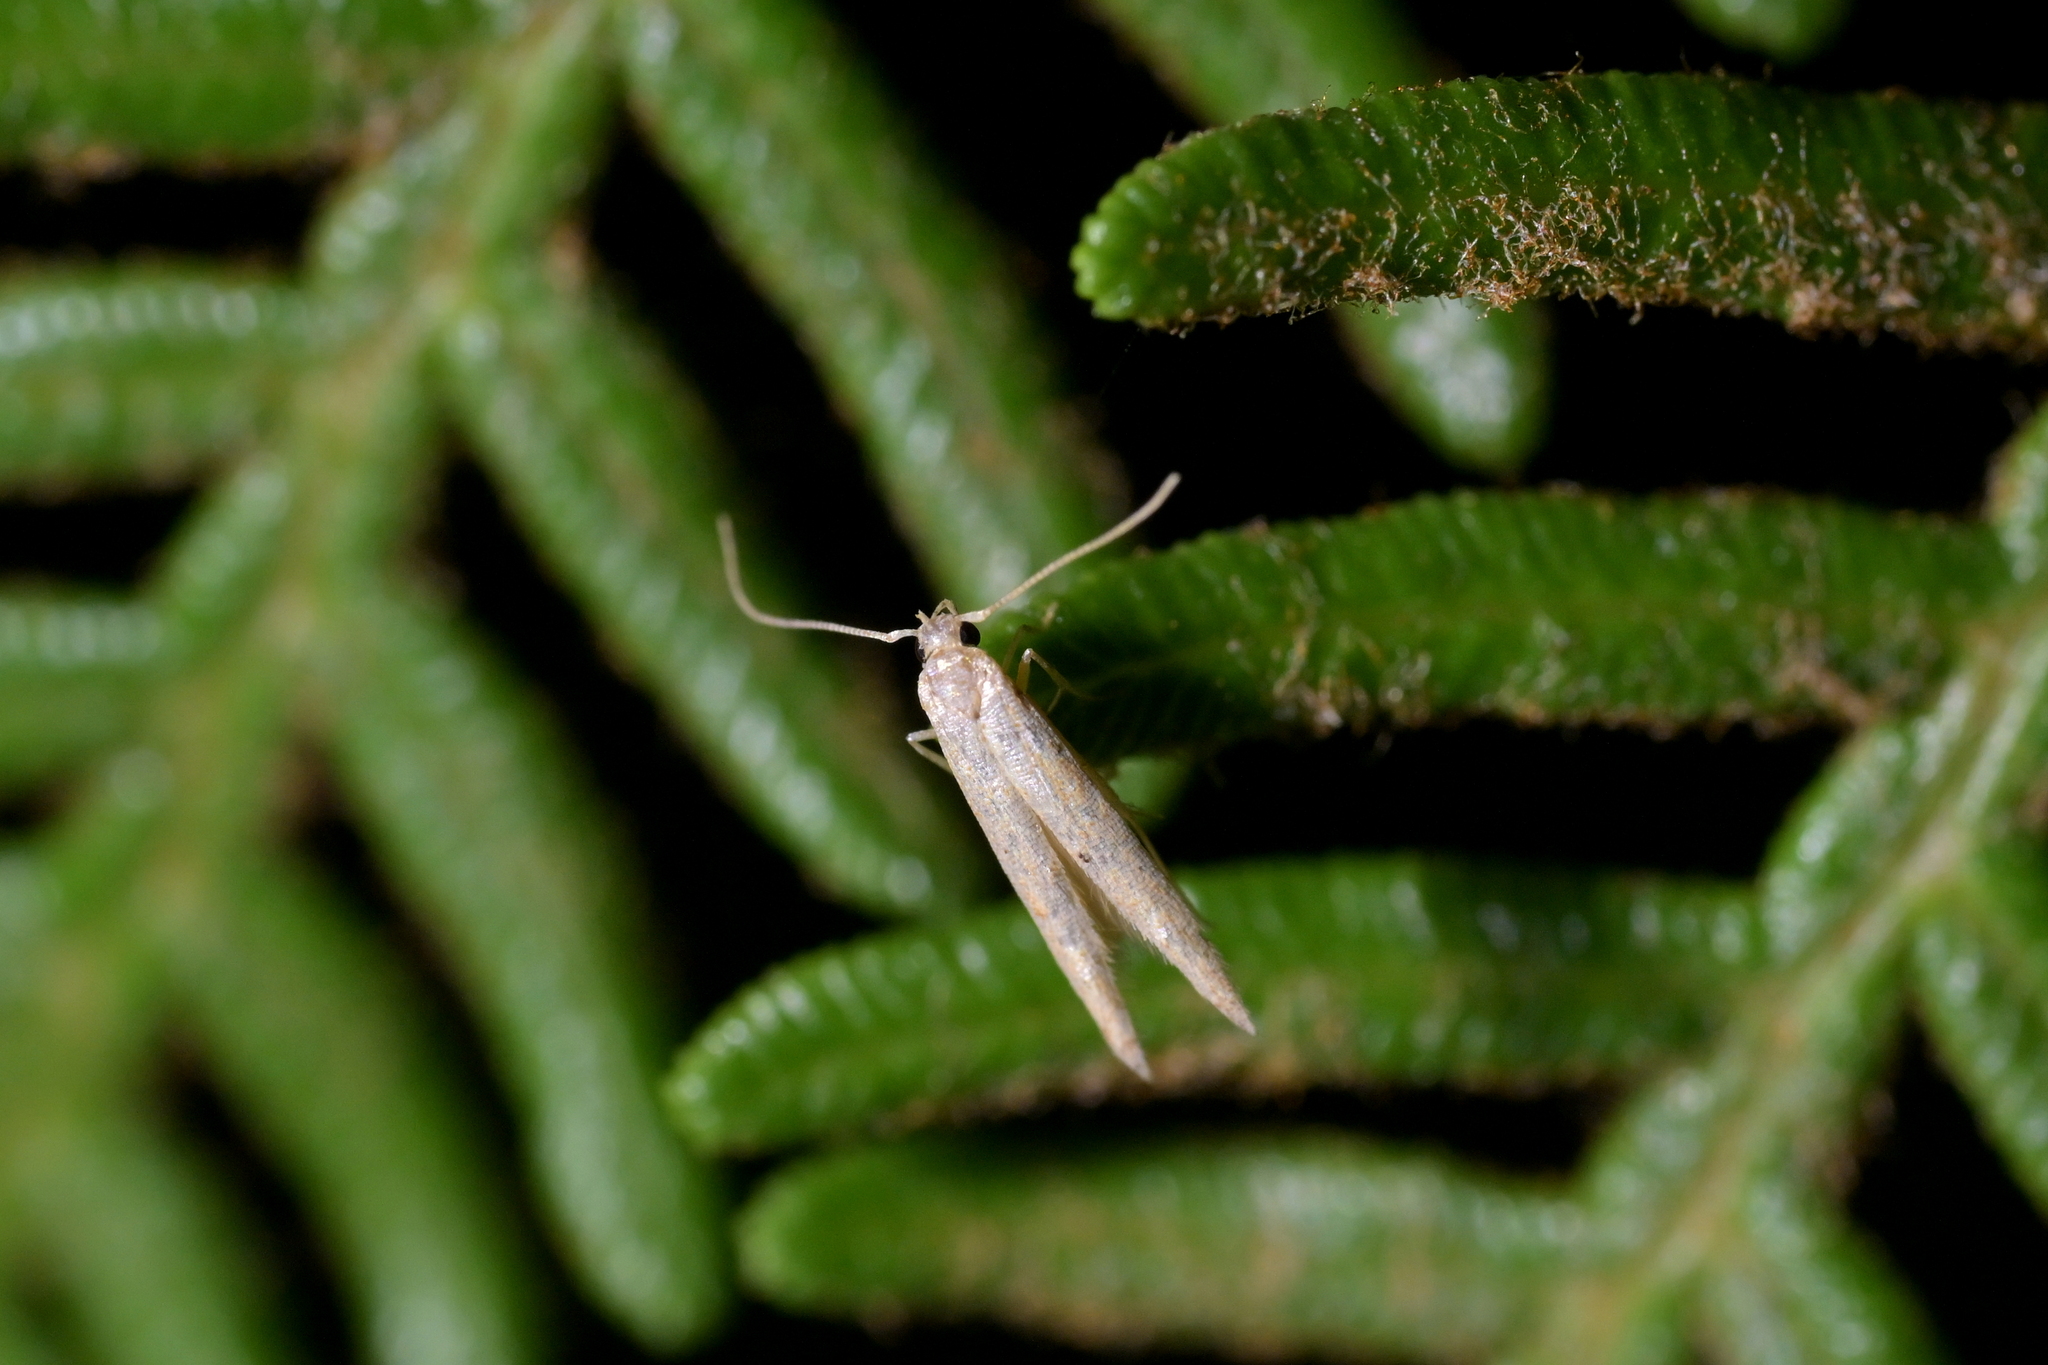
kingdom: Animalia
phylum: Arthropoda
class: Insecta
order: Lepidoptera
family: Elachistidae
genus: Microcolona
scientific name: Microcolona limodes
